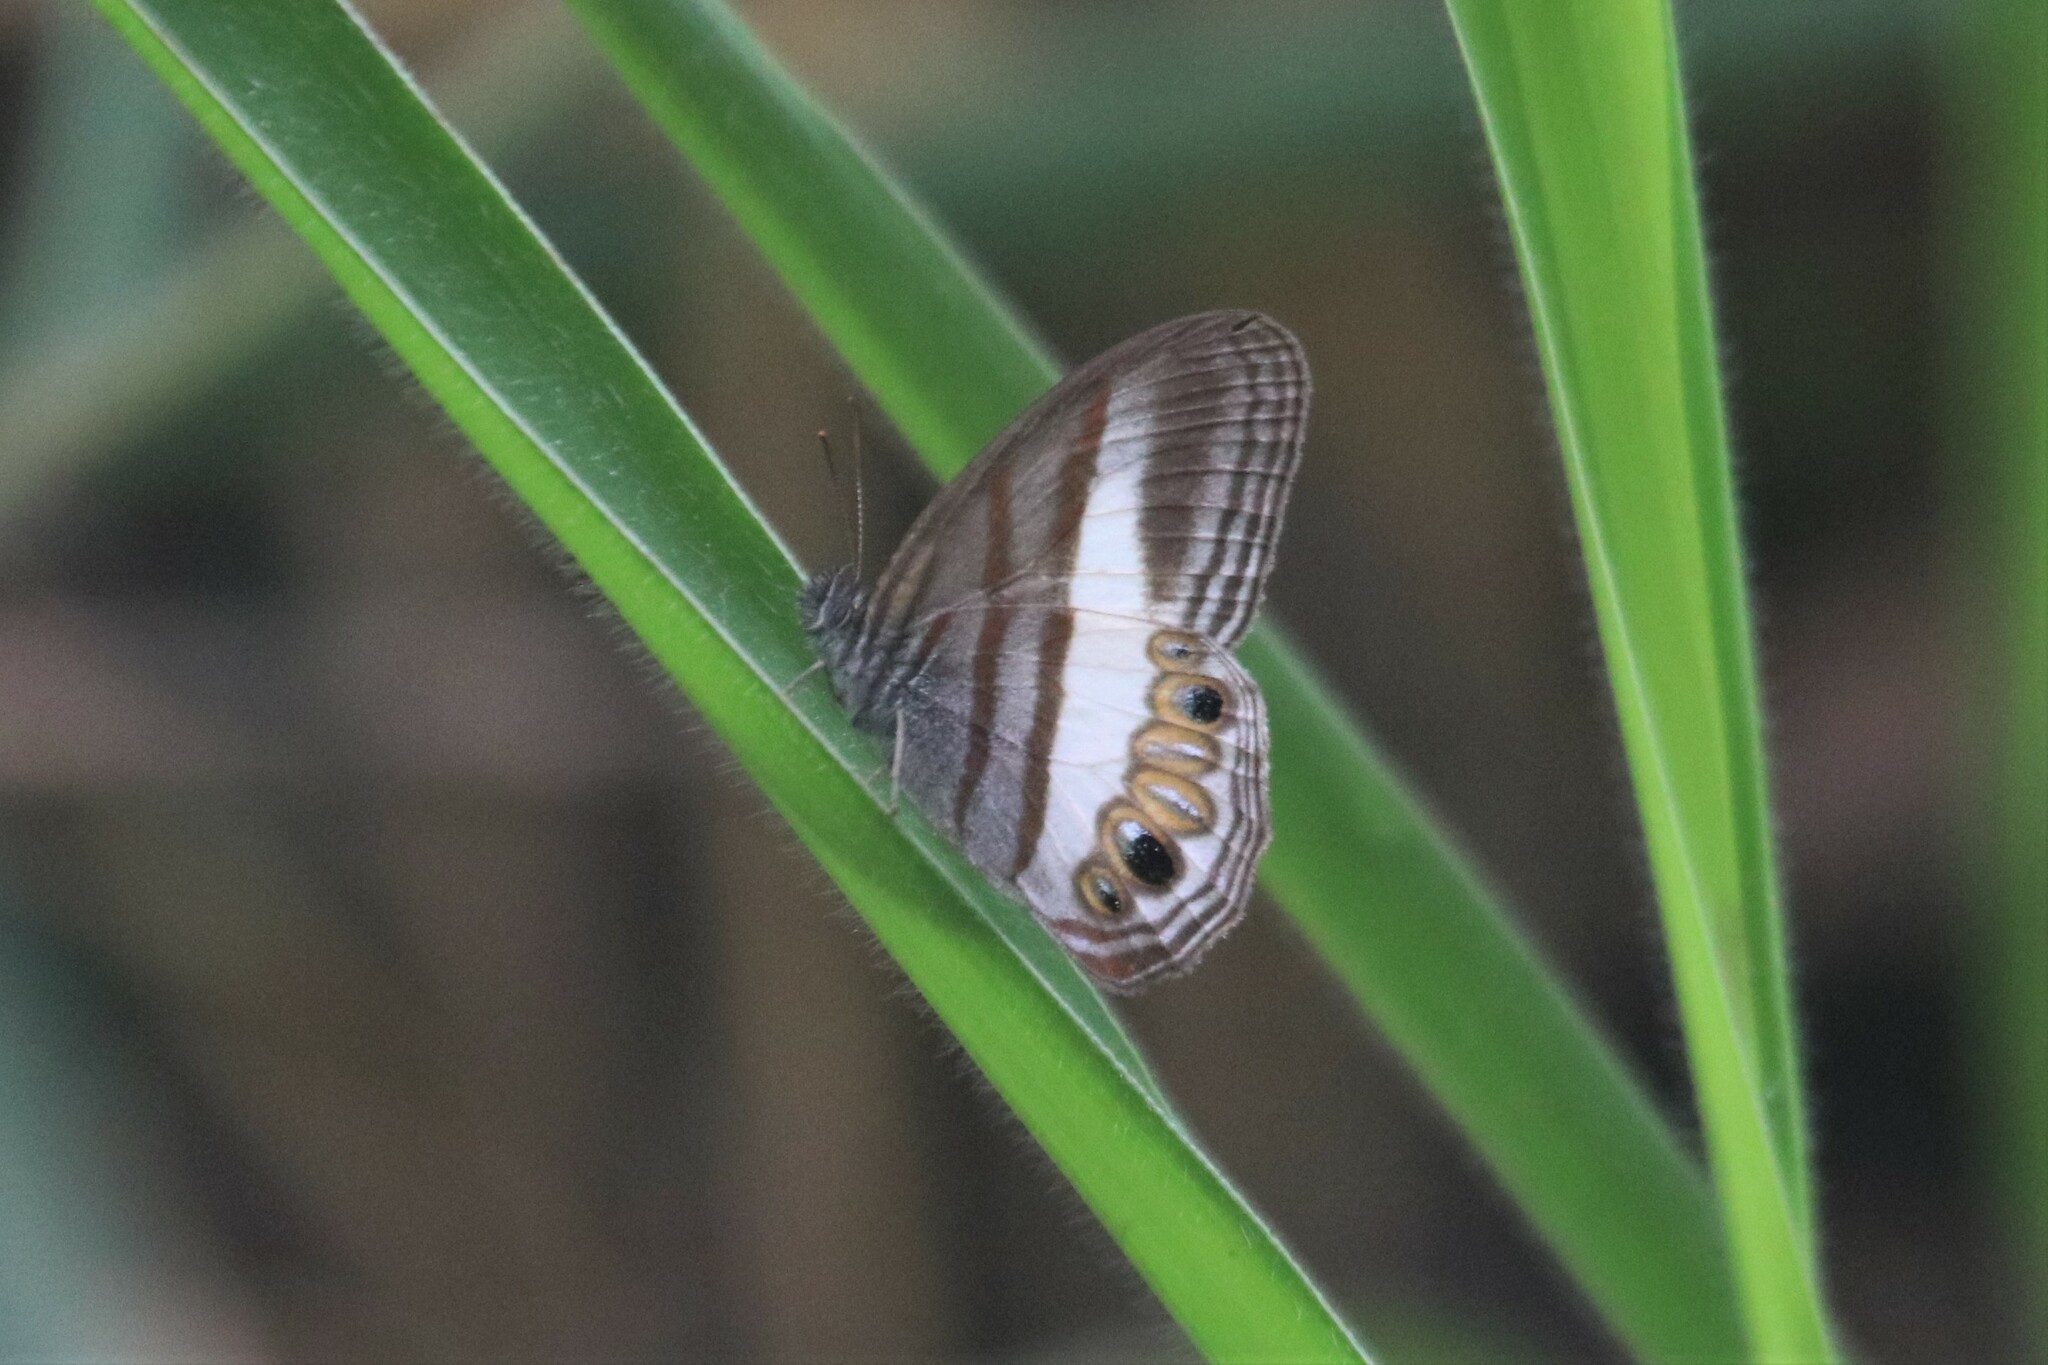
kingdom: Animalia
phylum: Arthropoda
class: Insecta
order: Lepidoptera
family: Nymphalidae
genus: Nhambikuara
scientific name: Nhambikuara
